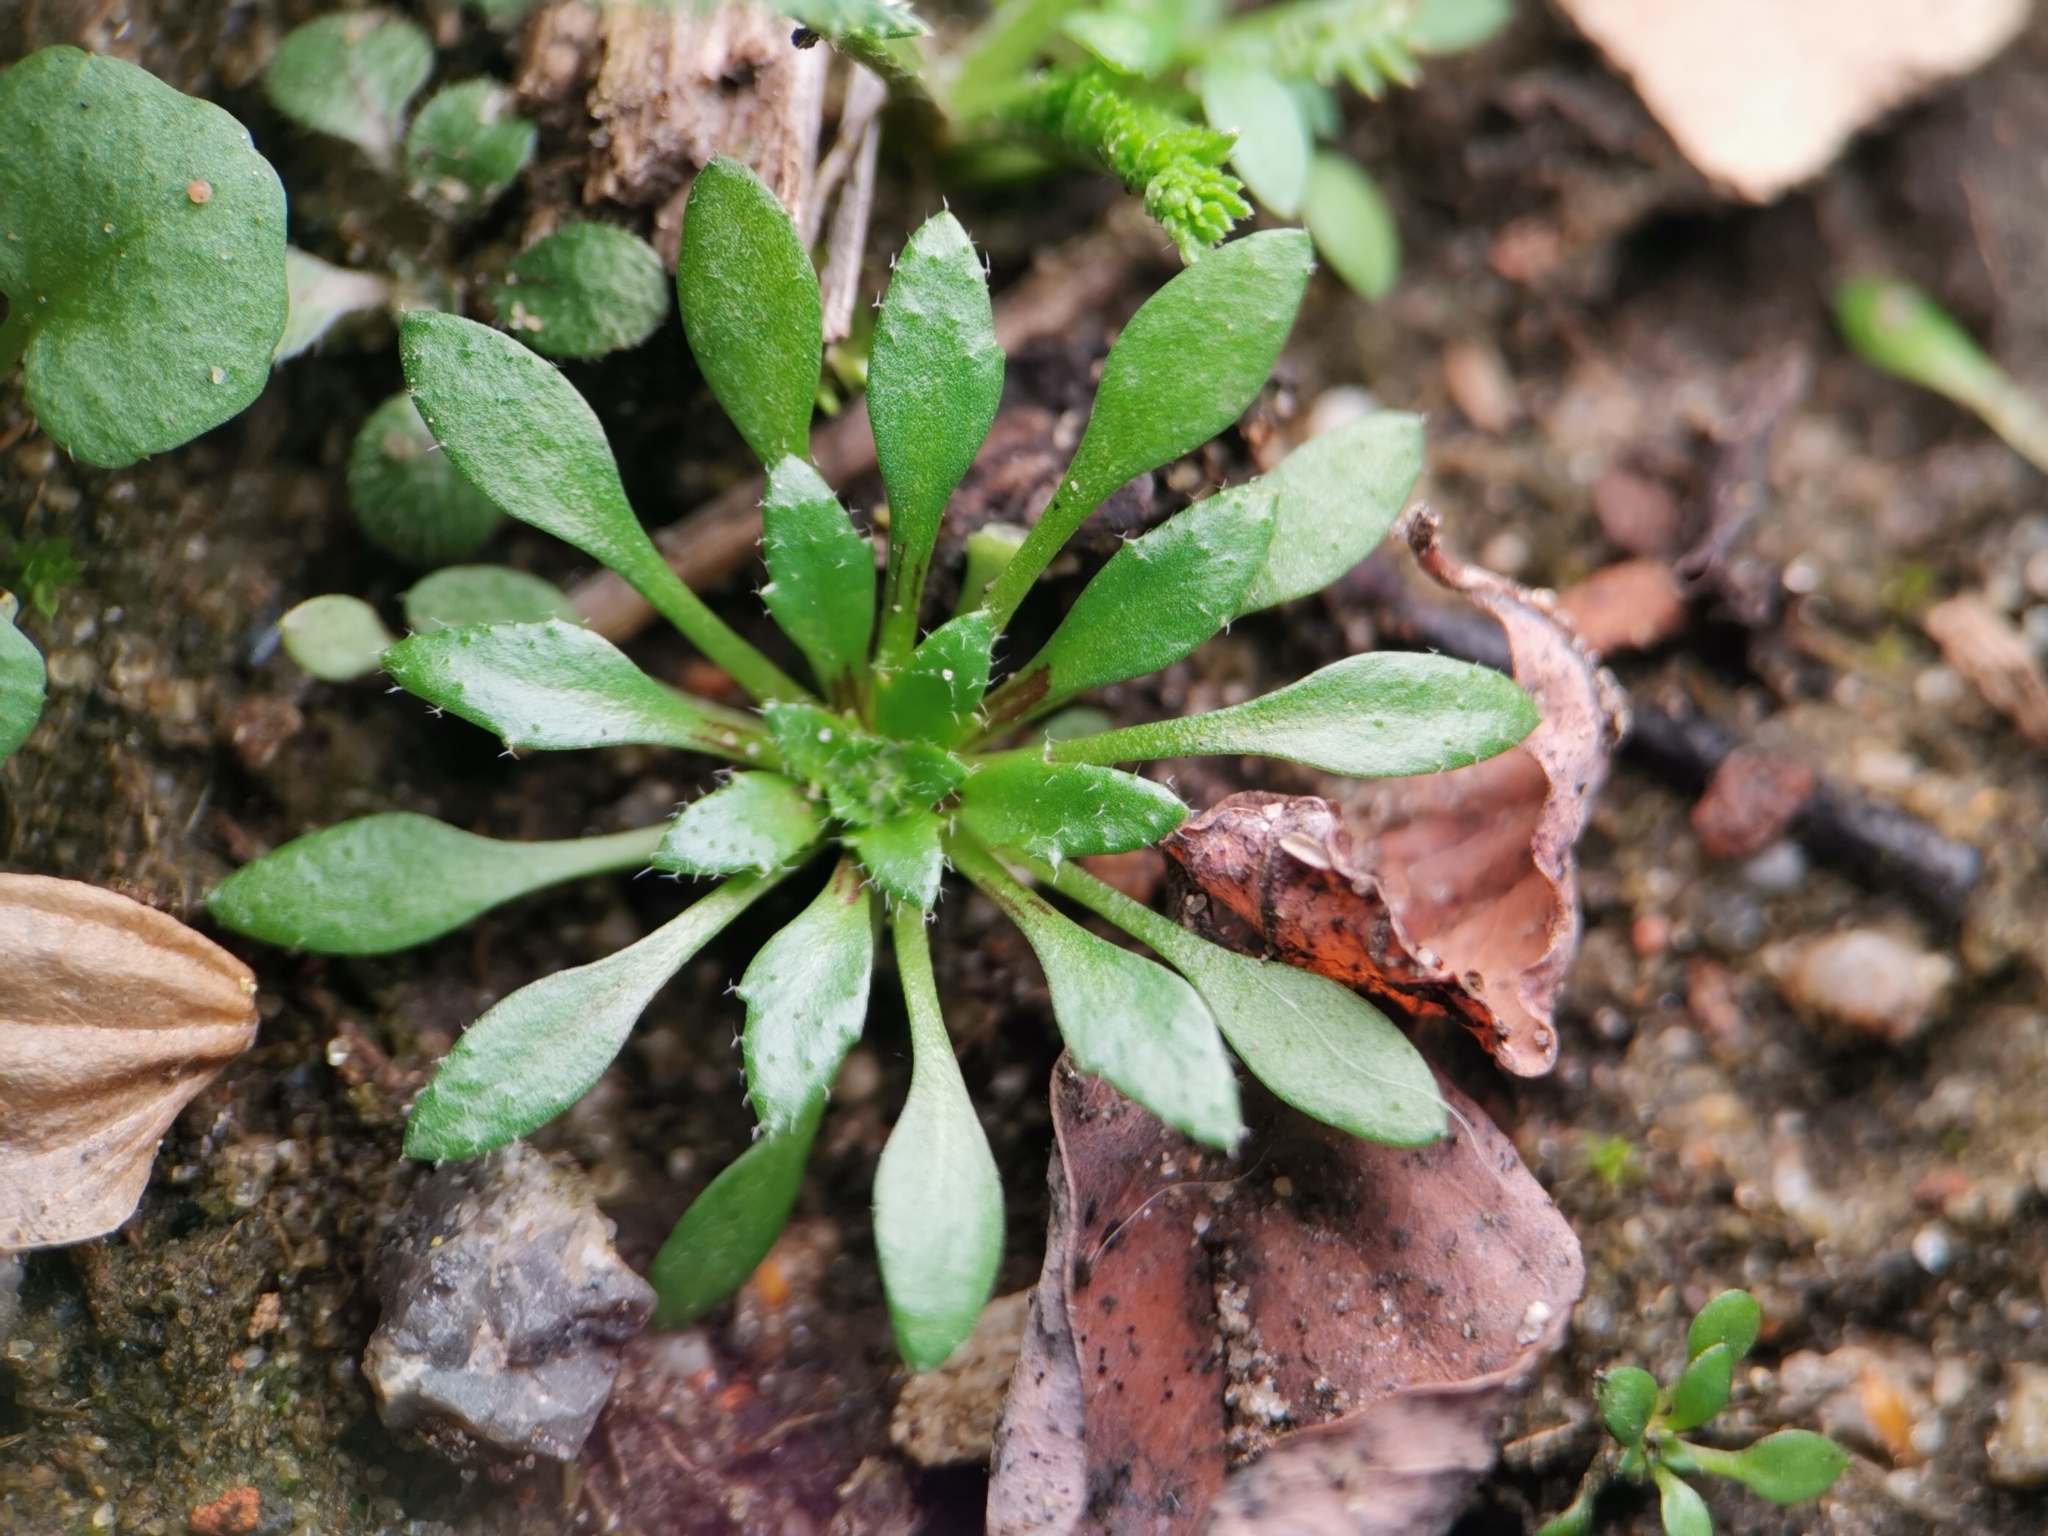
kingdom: Plantae
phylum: Tracheophyta
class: Magnoliopsida
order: Brassicales
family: Brassicaceae
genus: Draba
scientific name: Draba verna
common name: Spring draba
